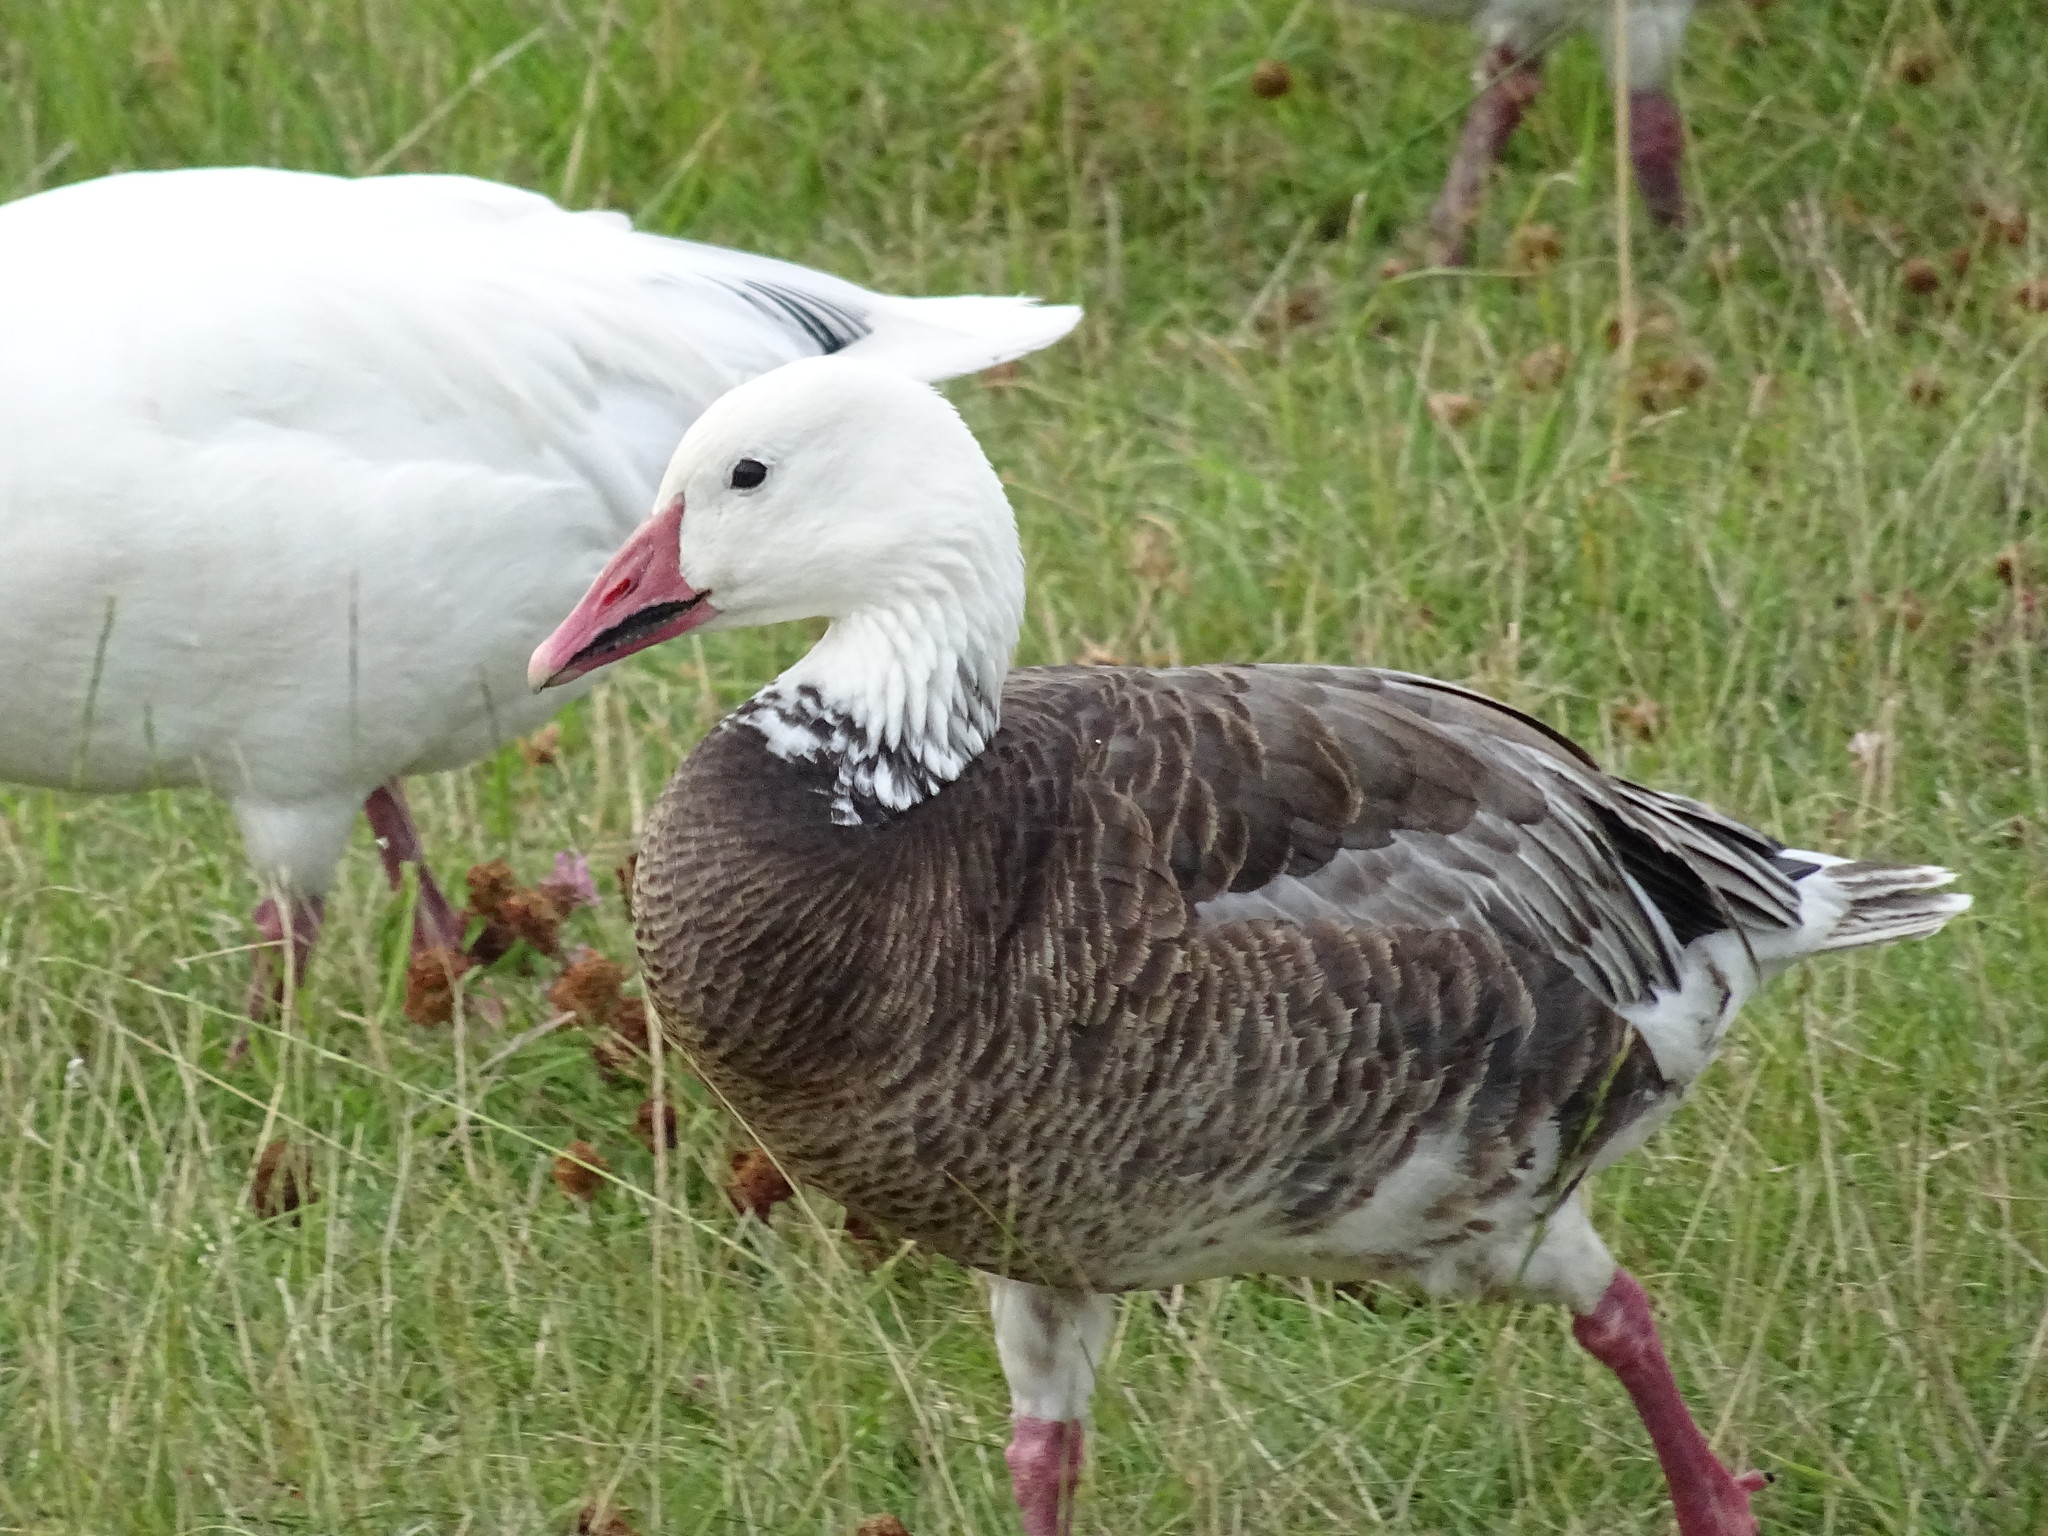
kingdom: Animalia
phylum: Chordata
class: Aves
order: Anseriformes
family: Anatidae
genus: Anser
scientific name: Anser caerulescens
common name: Snow goose
